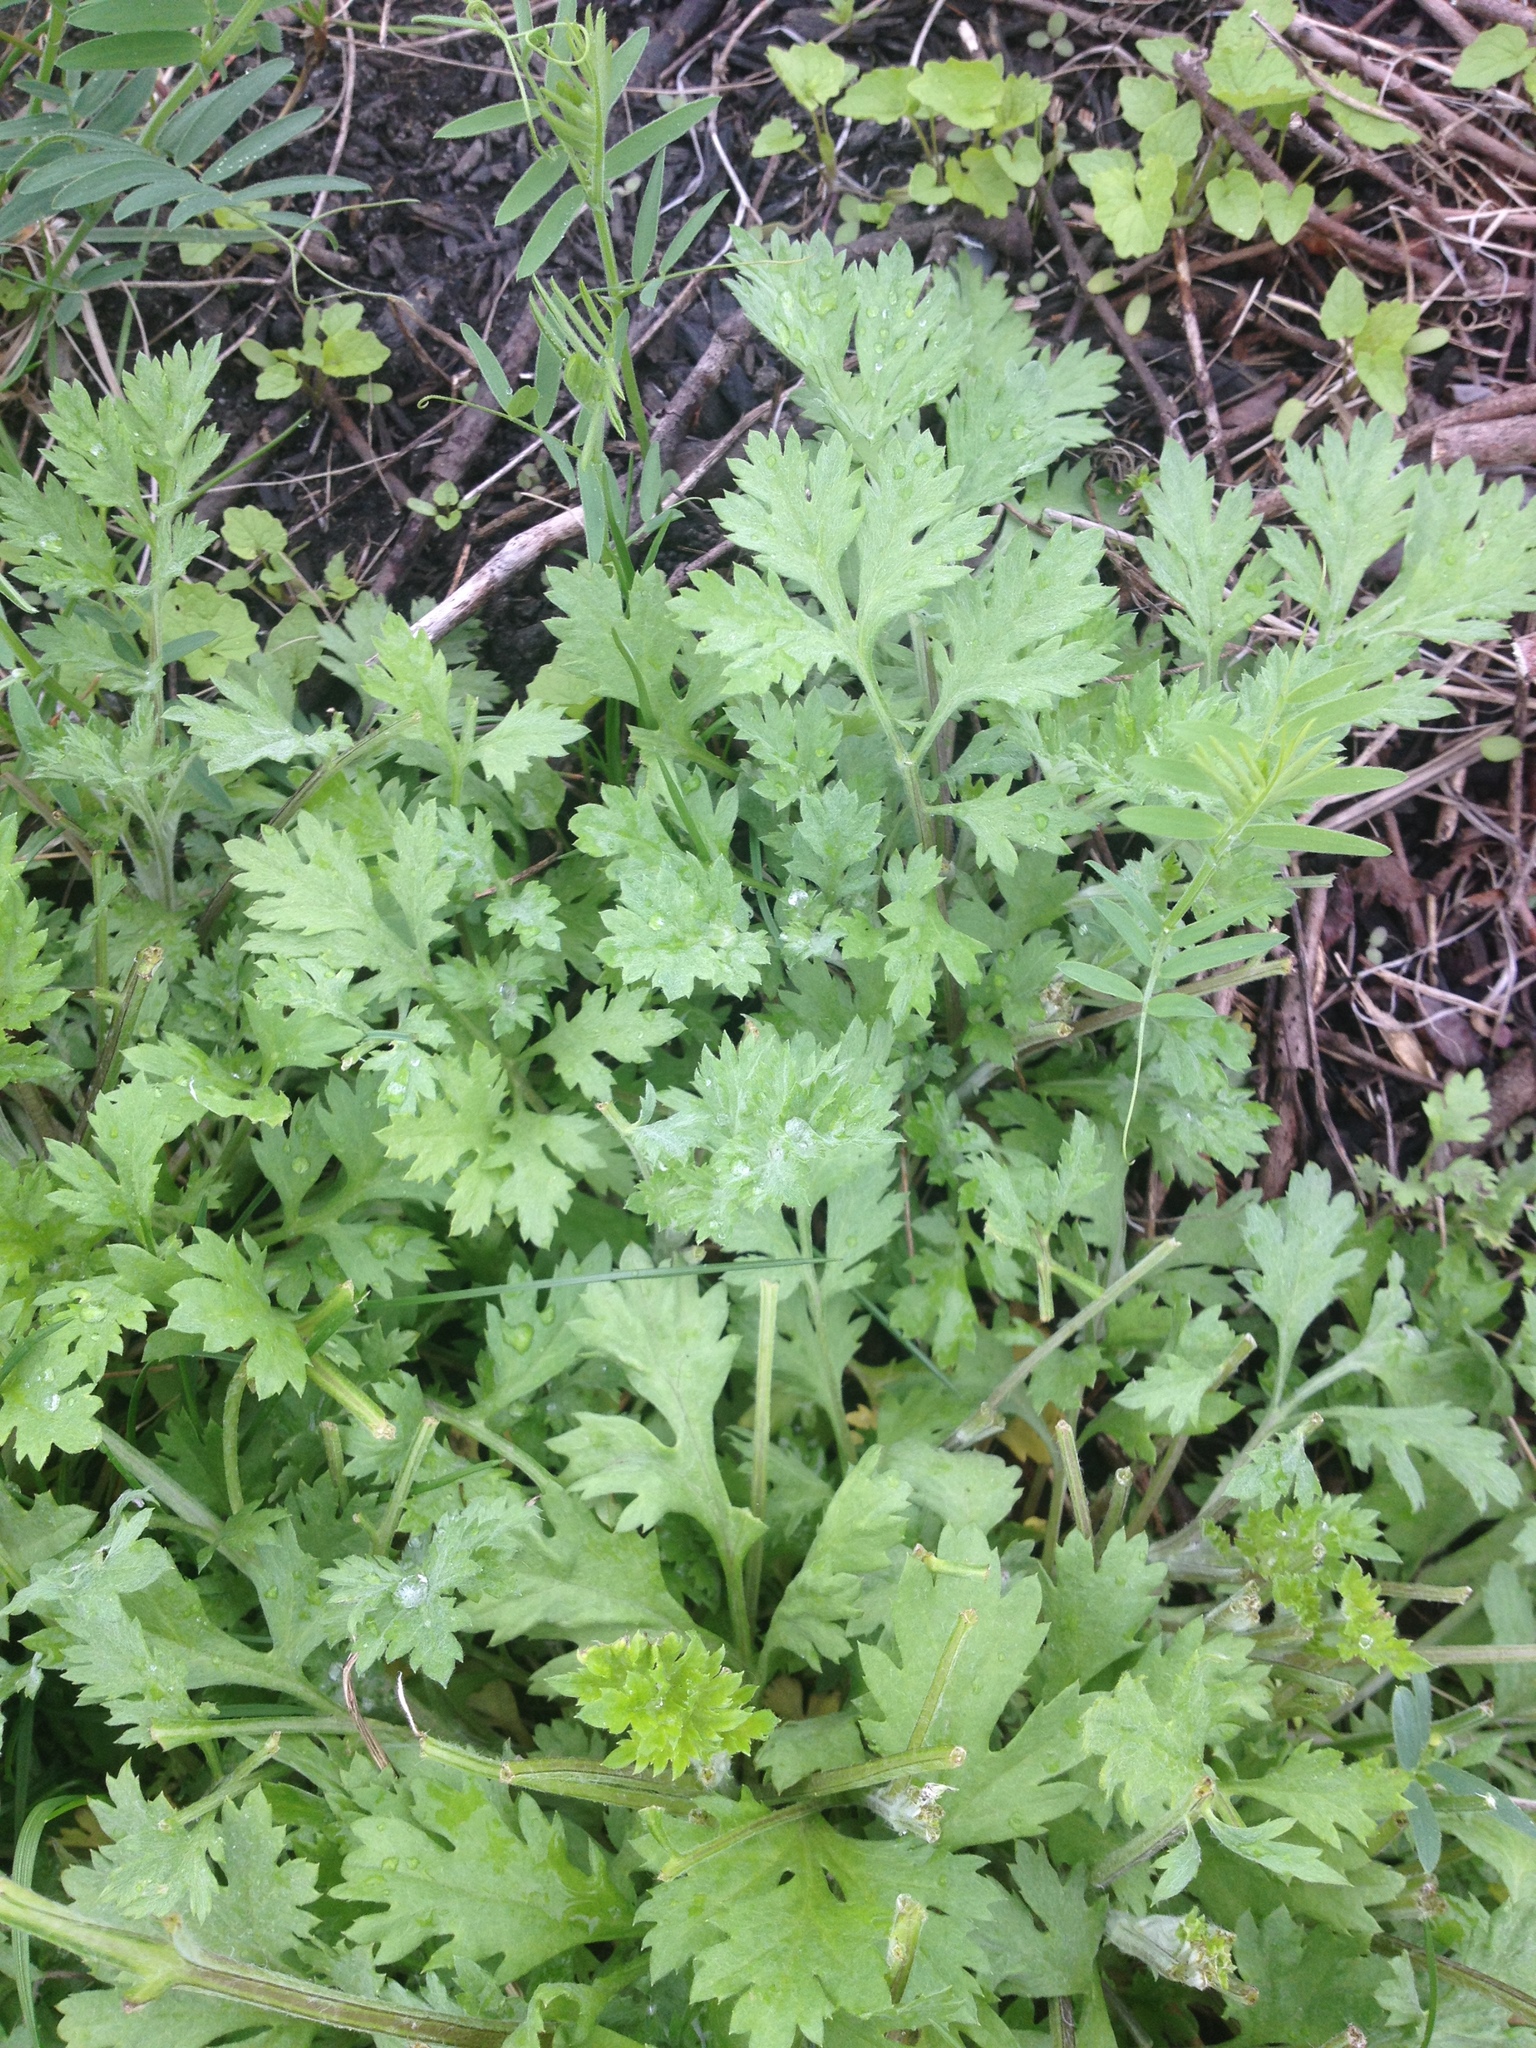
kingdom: Plantae
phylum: Tracheophyta
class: Magnoliopsida
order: Asterales
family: Asteraceae
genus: Artemisia
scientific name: Artemisia vulgaris
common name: Mugwort
